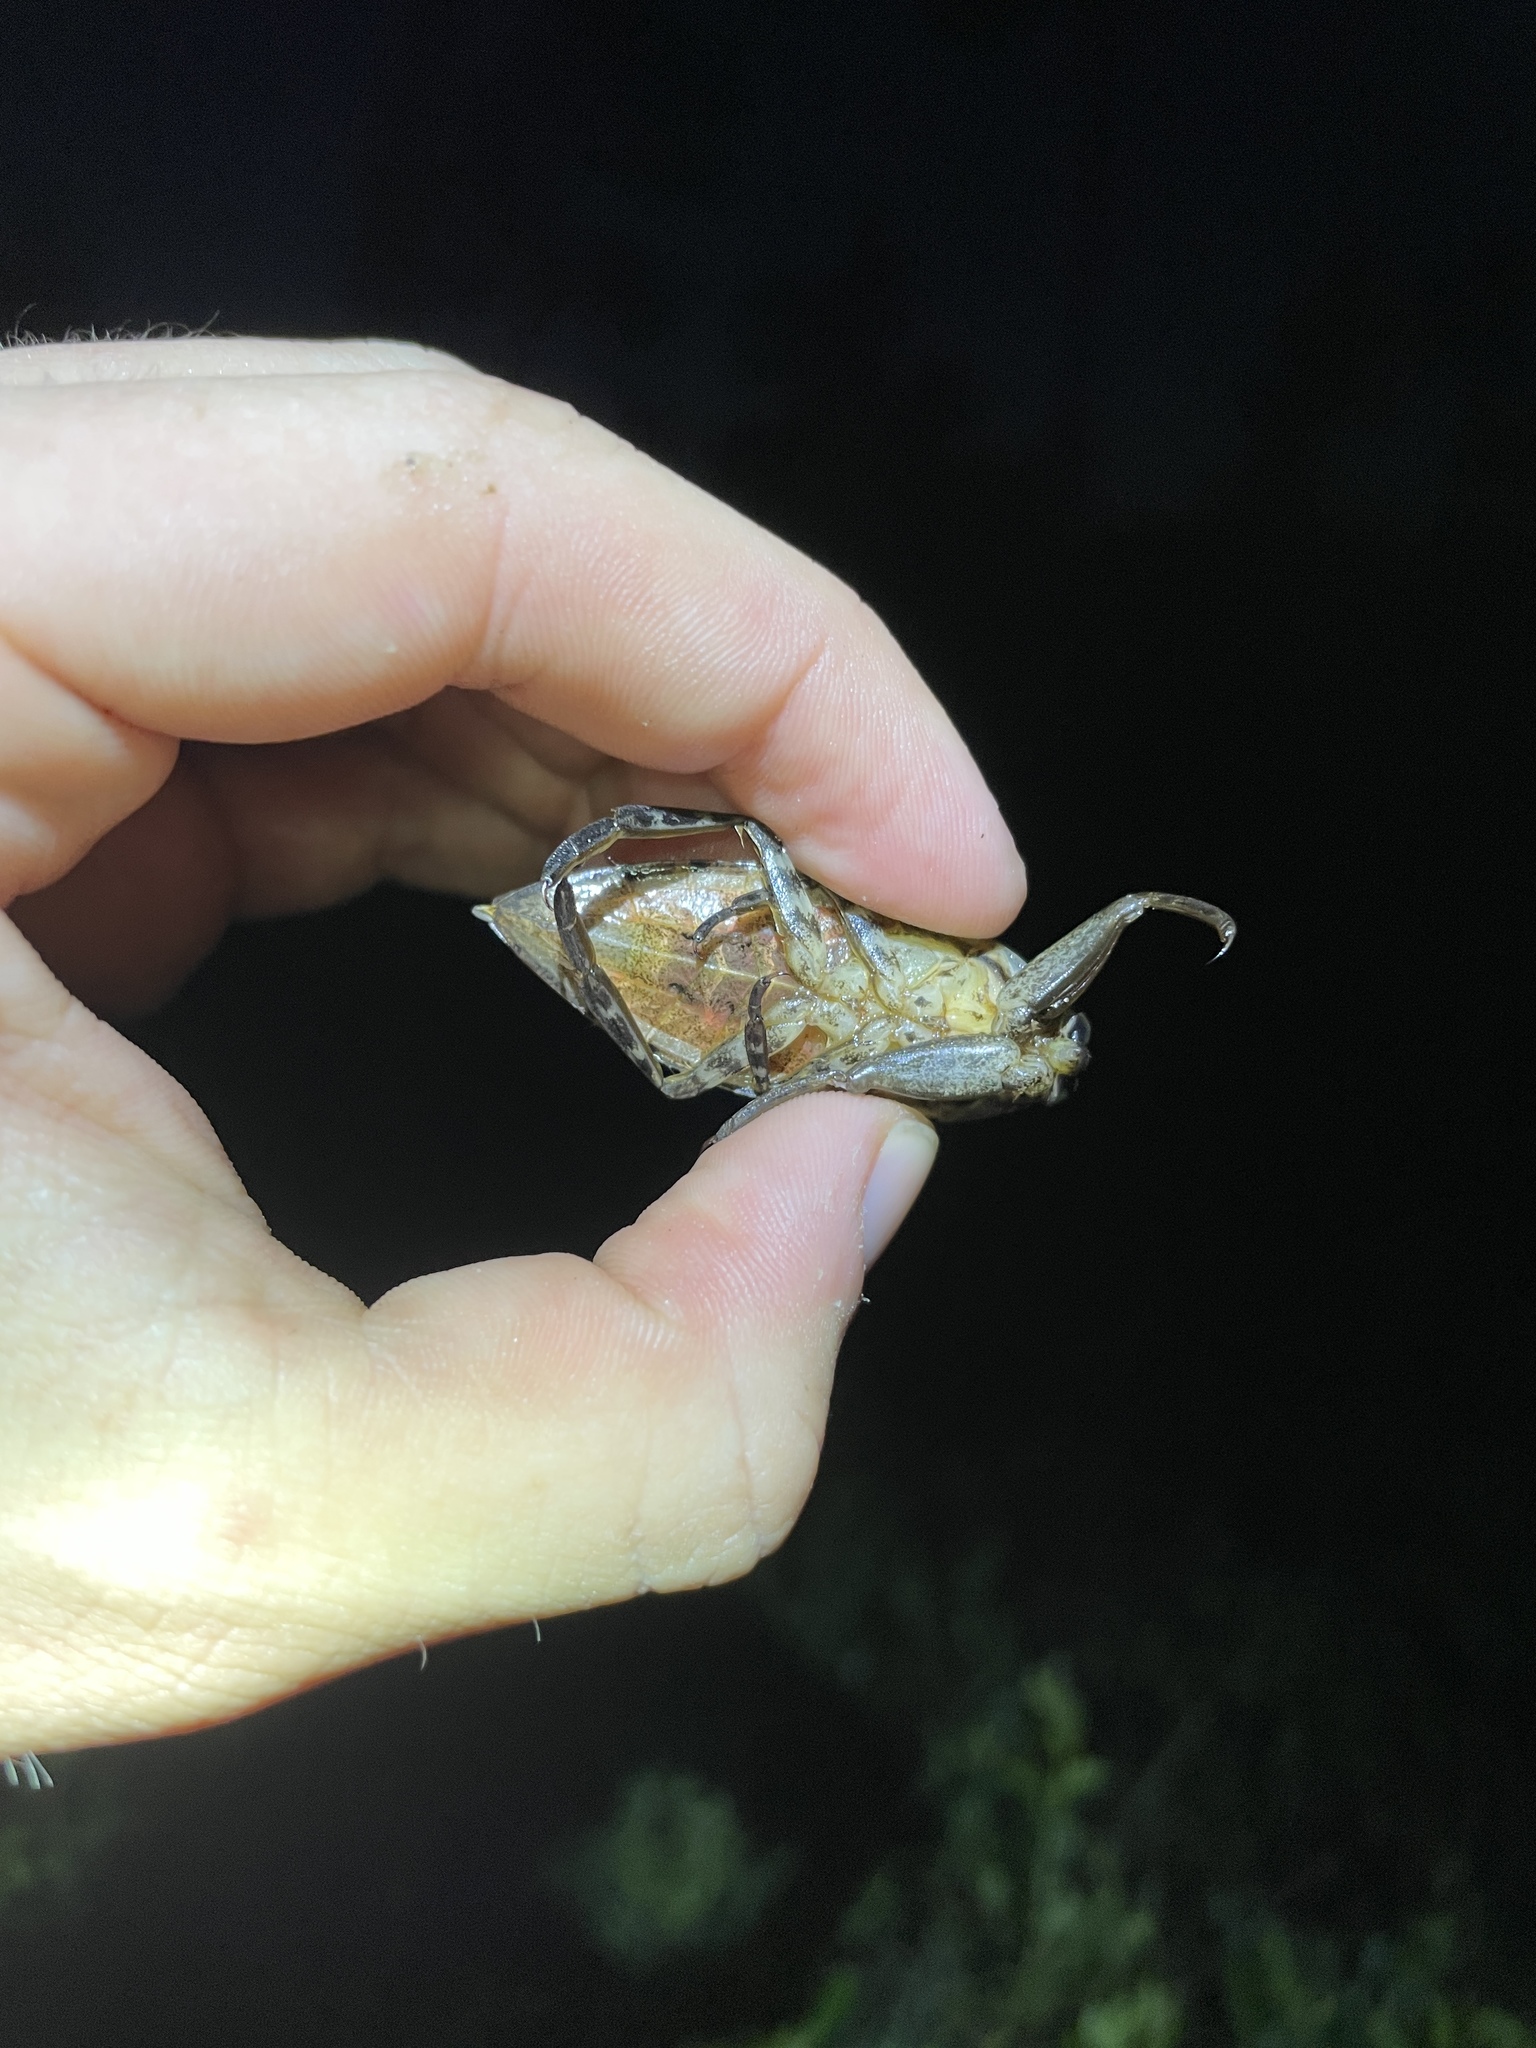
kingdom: Animalia
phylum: Arthropoda
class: Insecta
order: Hemiptera
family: Belostomatidae
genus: Lethocerus
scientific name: Lethocerus uhleri
